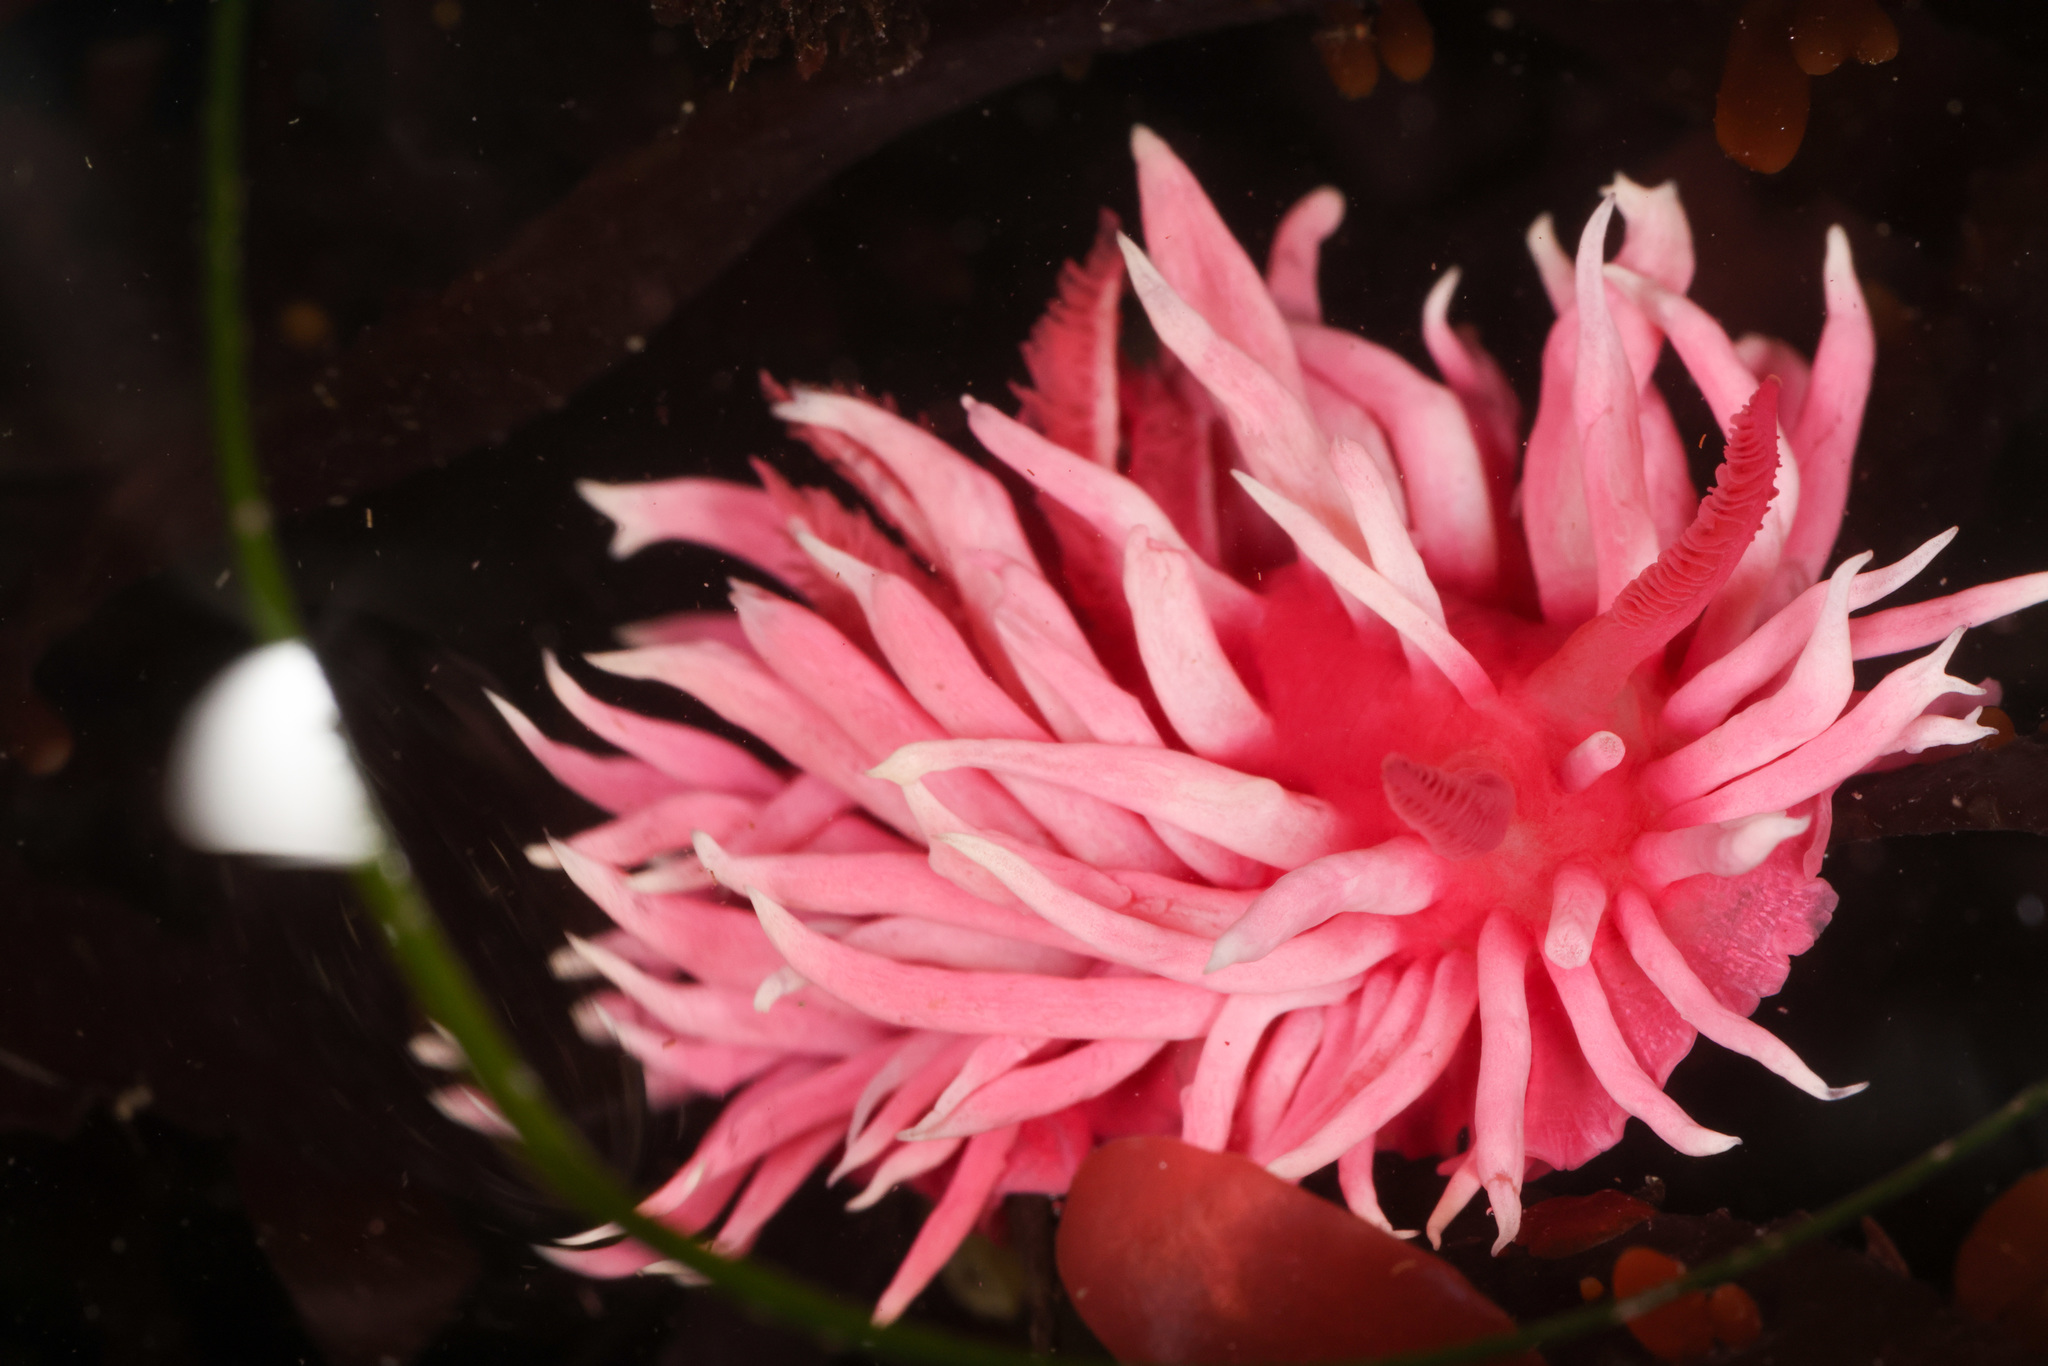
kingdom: Animalia
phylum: Mollusca
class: Gastropoda
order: Nudibranchia
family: Goniodorididae
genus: Okenia
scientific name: Okenia
